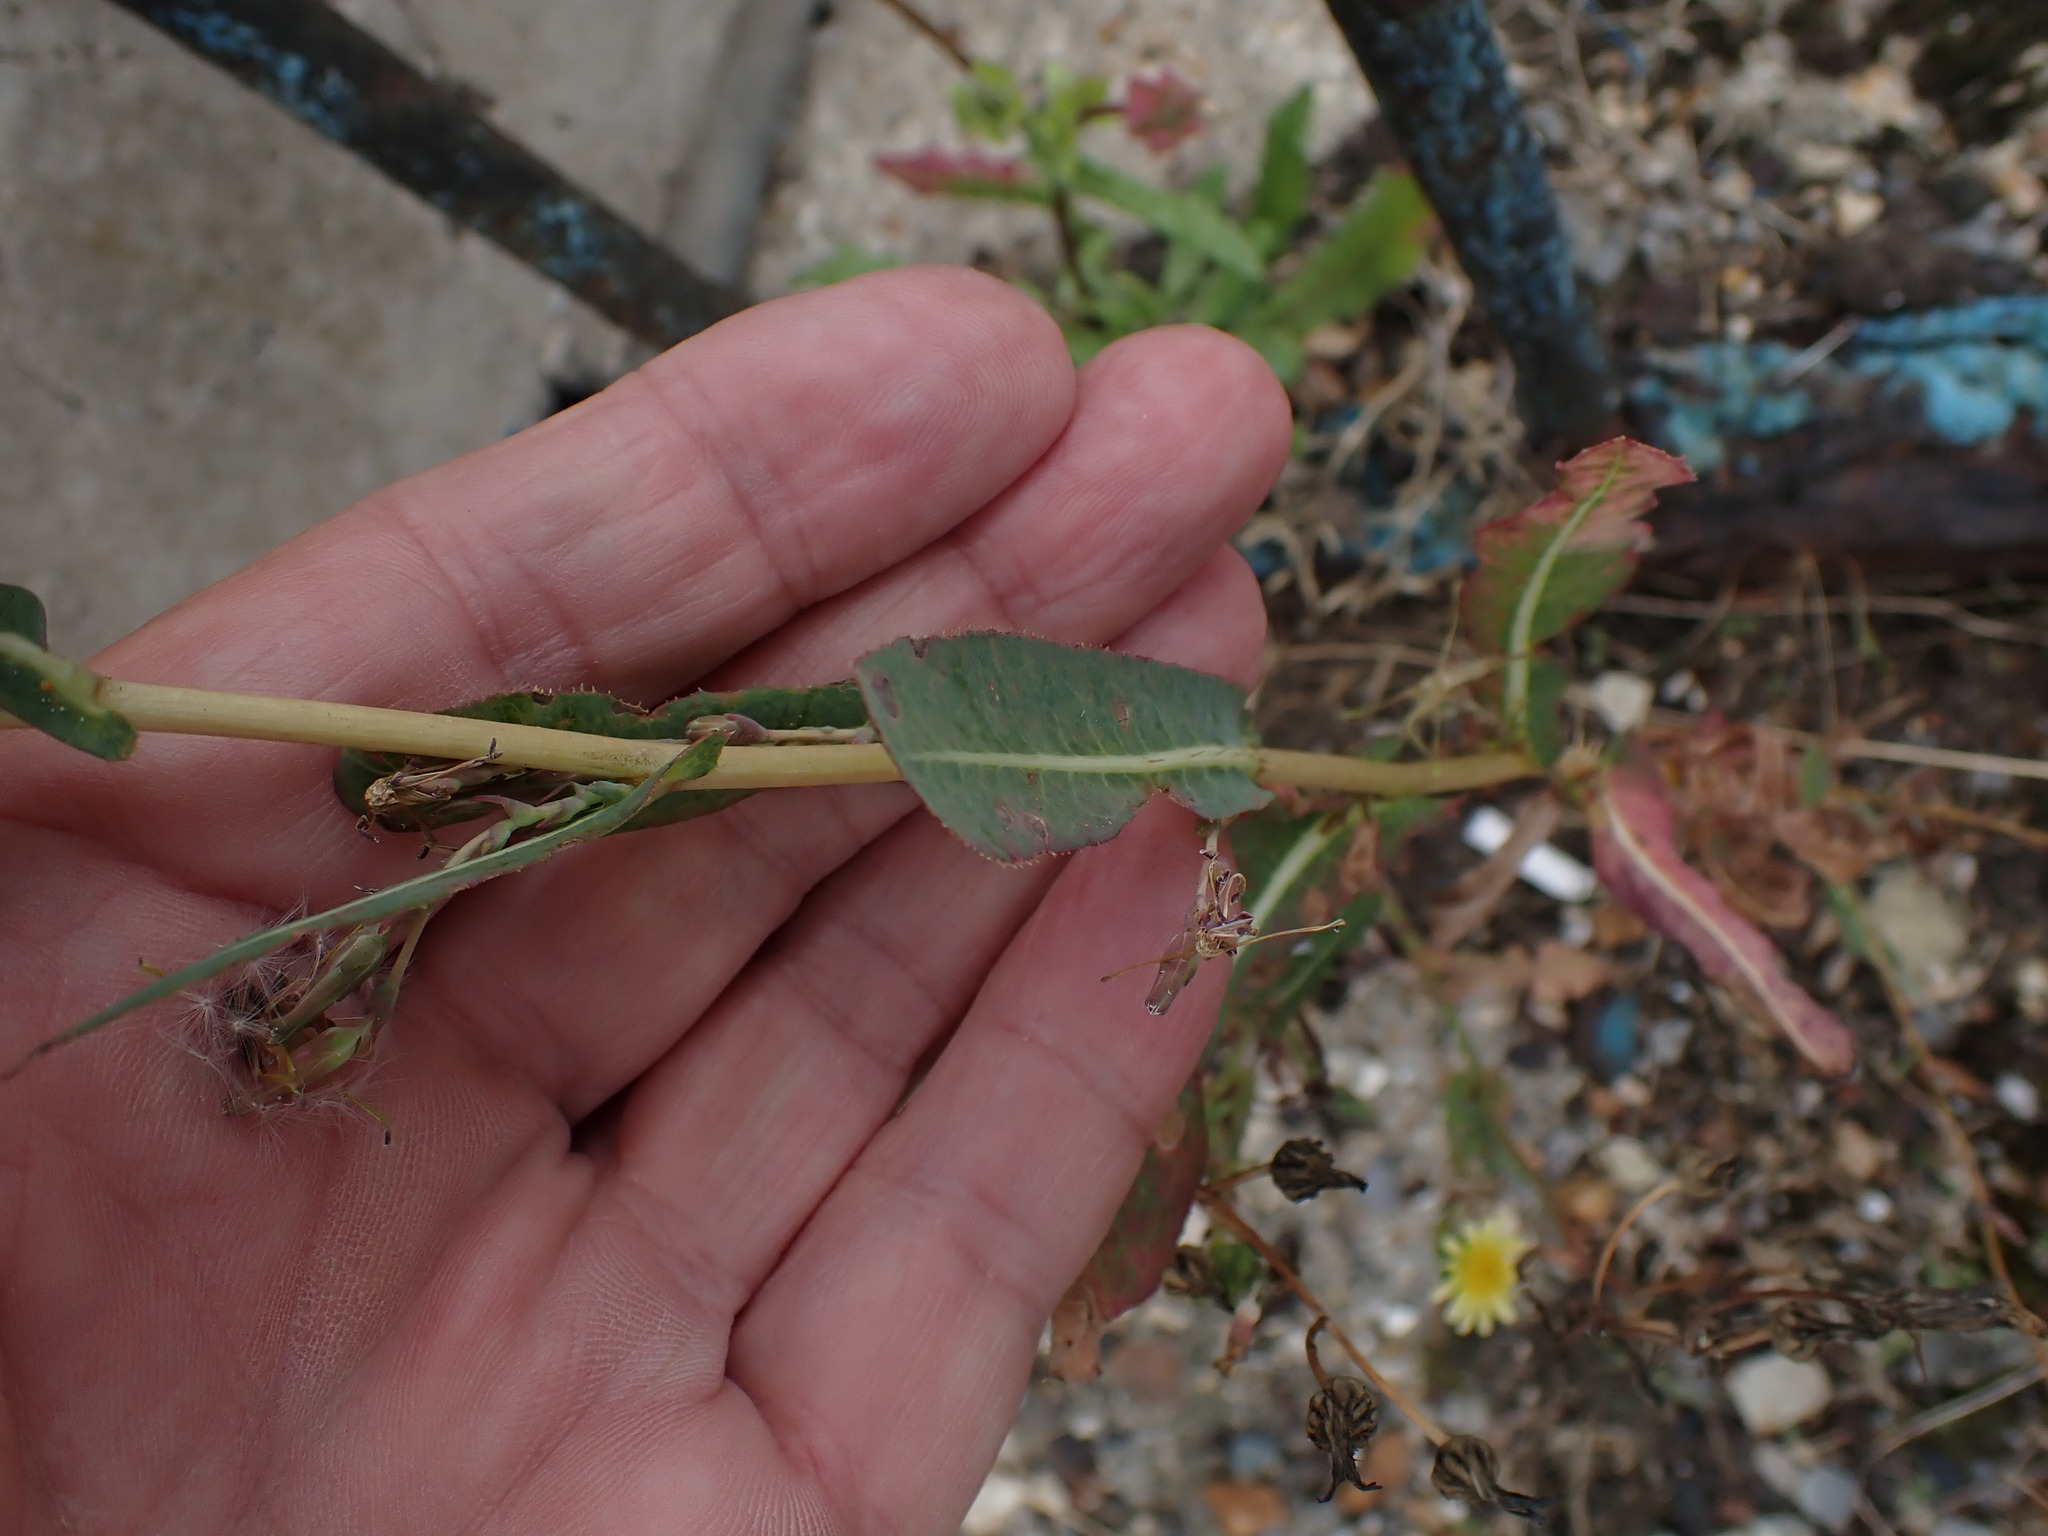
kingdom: Plantae
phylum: Tracheophyta
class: Magnoliopsida
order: Asterales
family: Asteraceae
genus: Lactuca
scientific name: Lactuca serriola
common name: Prickly lettuce
